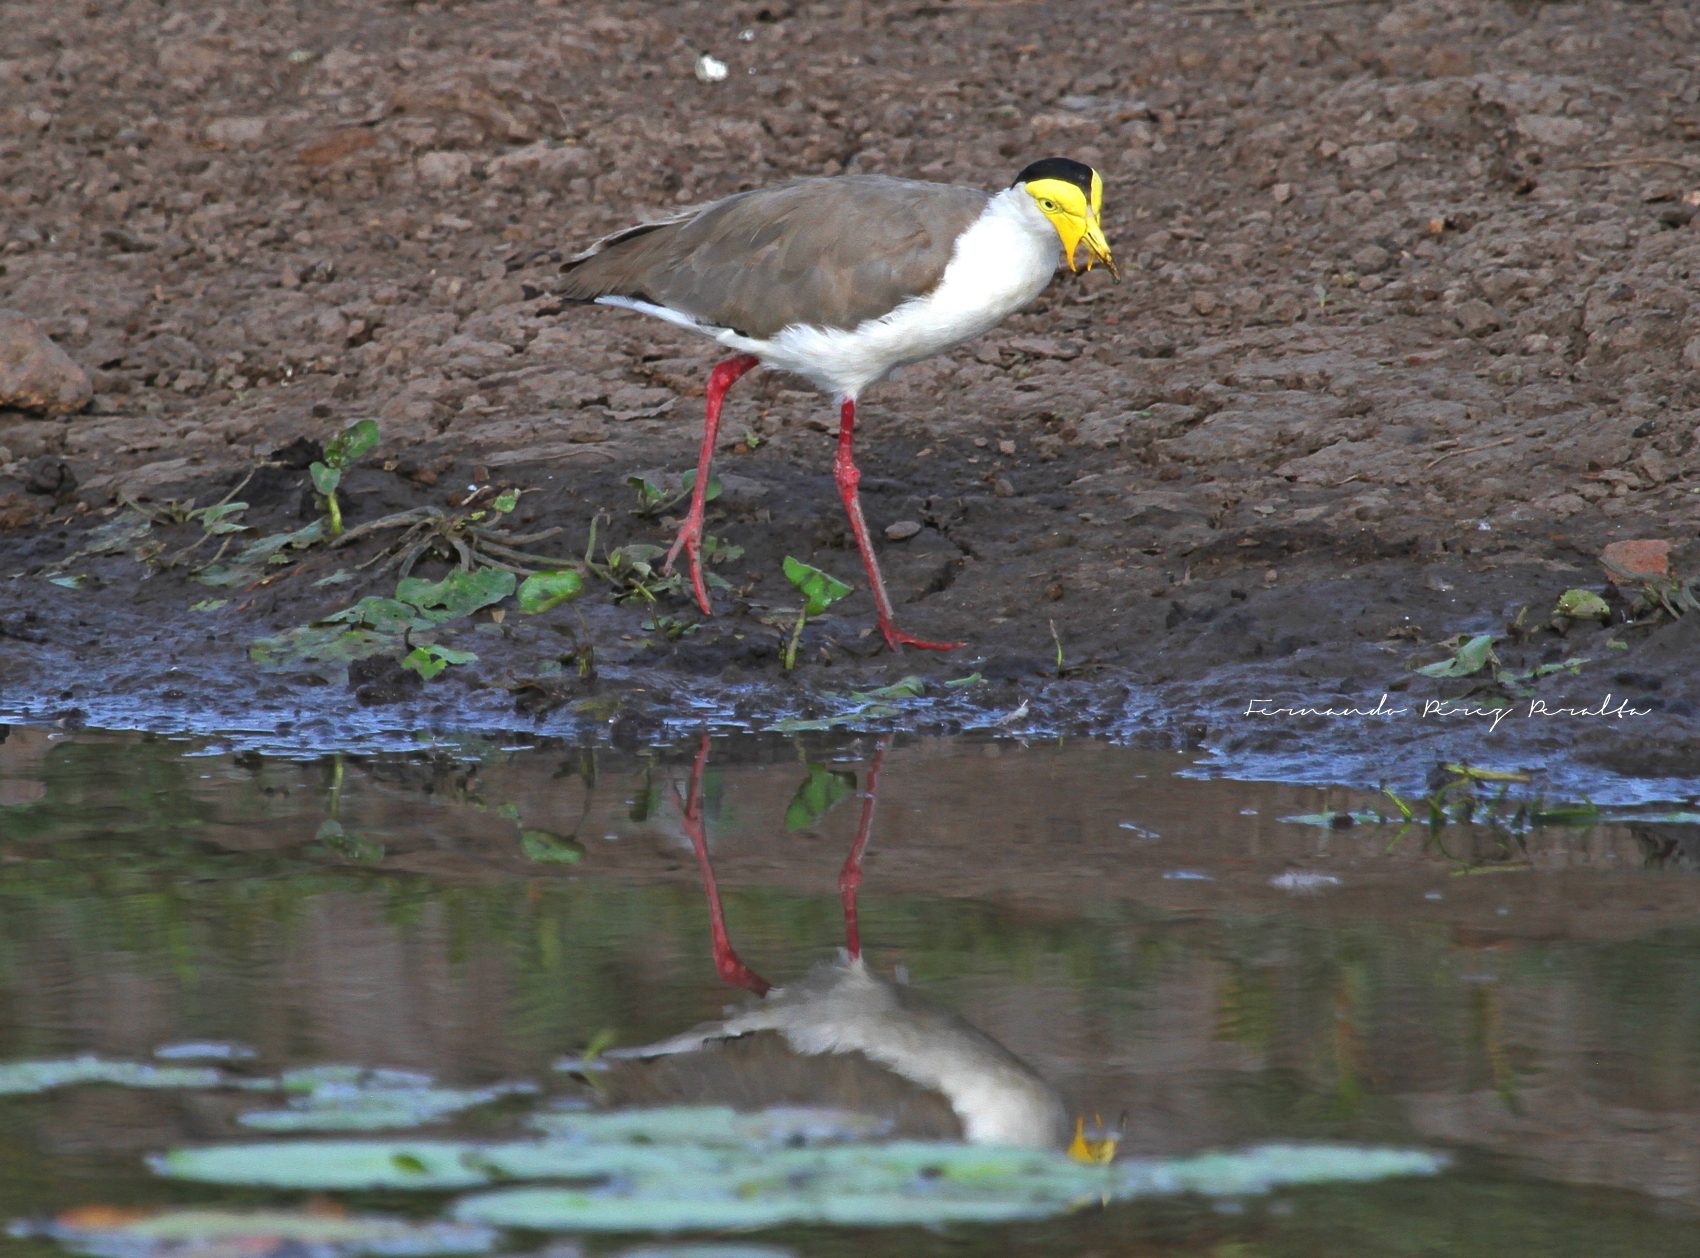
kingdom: Animalia
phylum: Chordata
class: Aves
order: Charadriiformes
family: Charadriidae
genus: Vanellus
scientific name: Vanellus miles
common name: Masked lapwing
